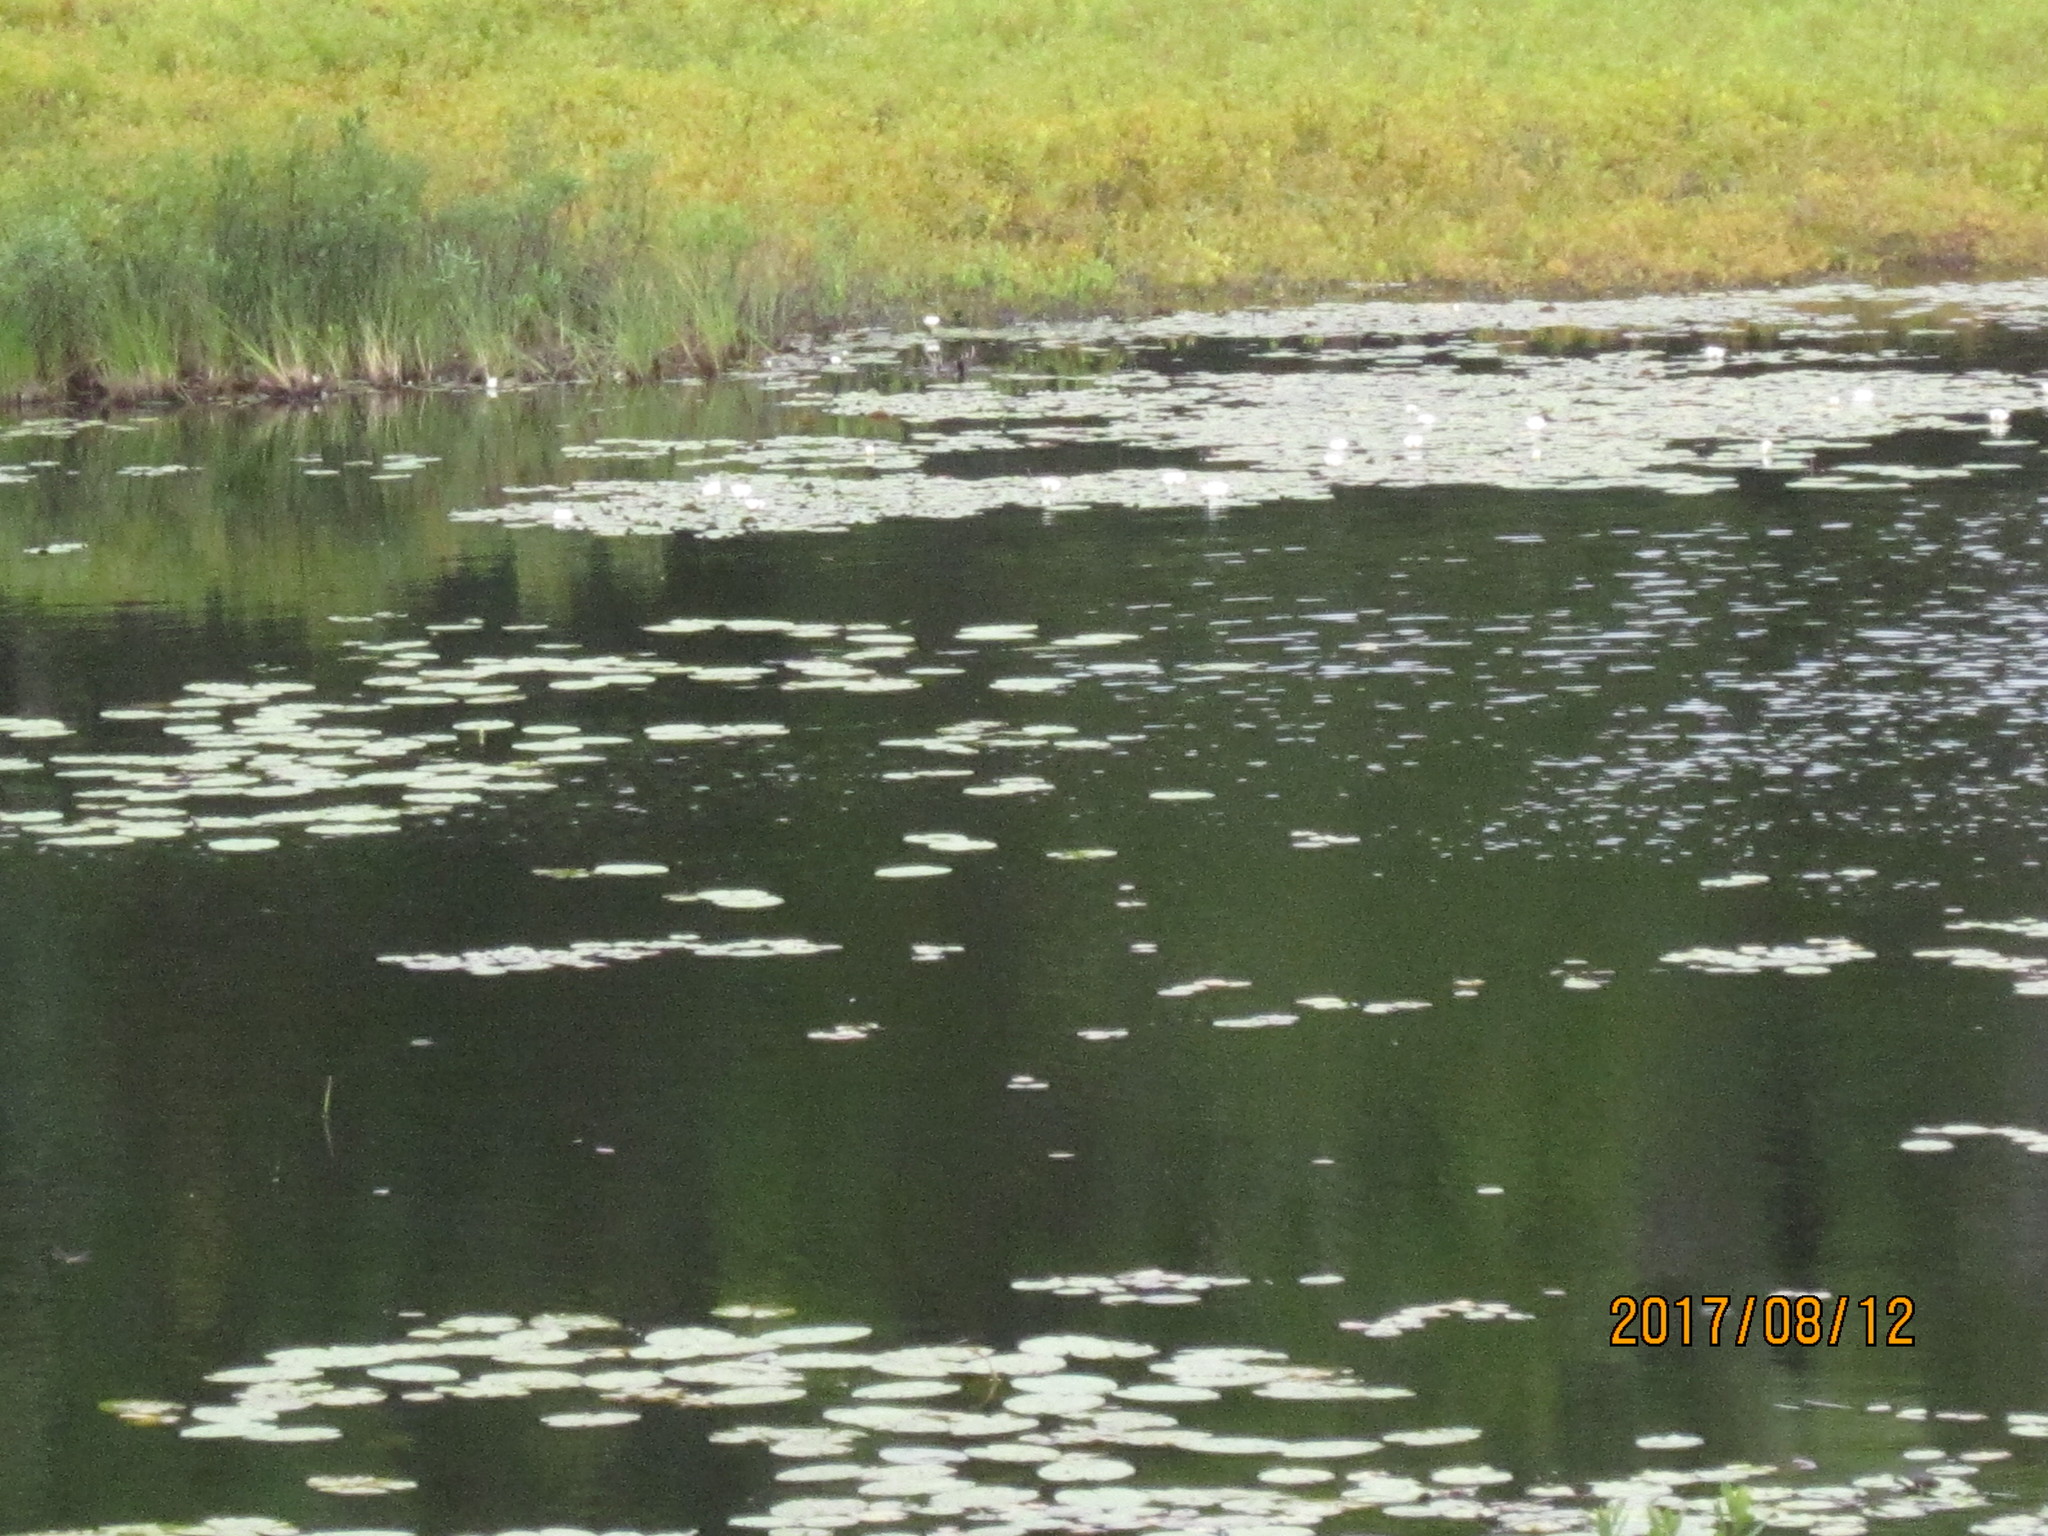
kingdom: Plantae
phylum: Tracheophyta
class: Magnoliopsida
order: Nymphaeales
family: Nymphaeaceae
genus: Nymphaea
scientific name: Nymphaea odorata
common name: Fragrant water-lily
